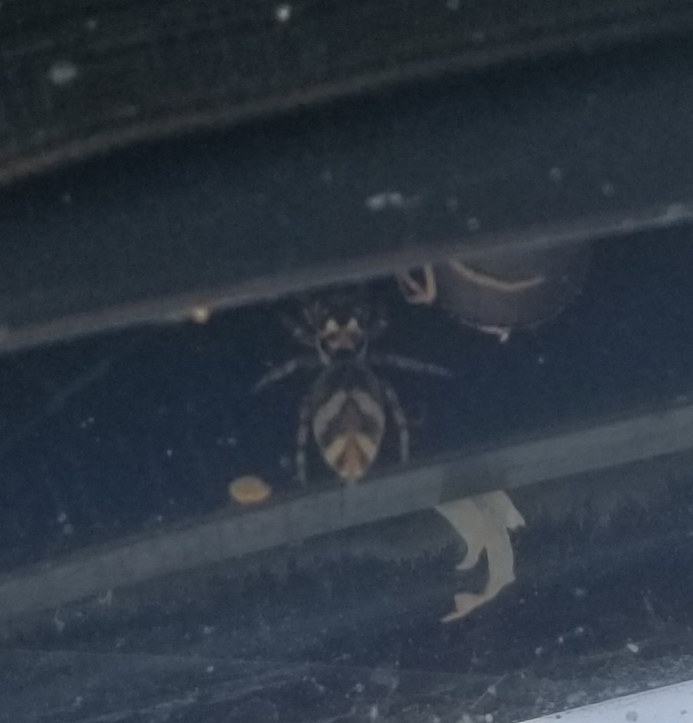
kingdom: Animalia
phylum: Arthropoda
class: Arachnida
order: Araneae
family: Salticidae
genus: Salticus
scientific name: Salticus scenicus
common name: Zebra jumper
